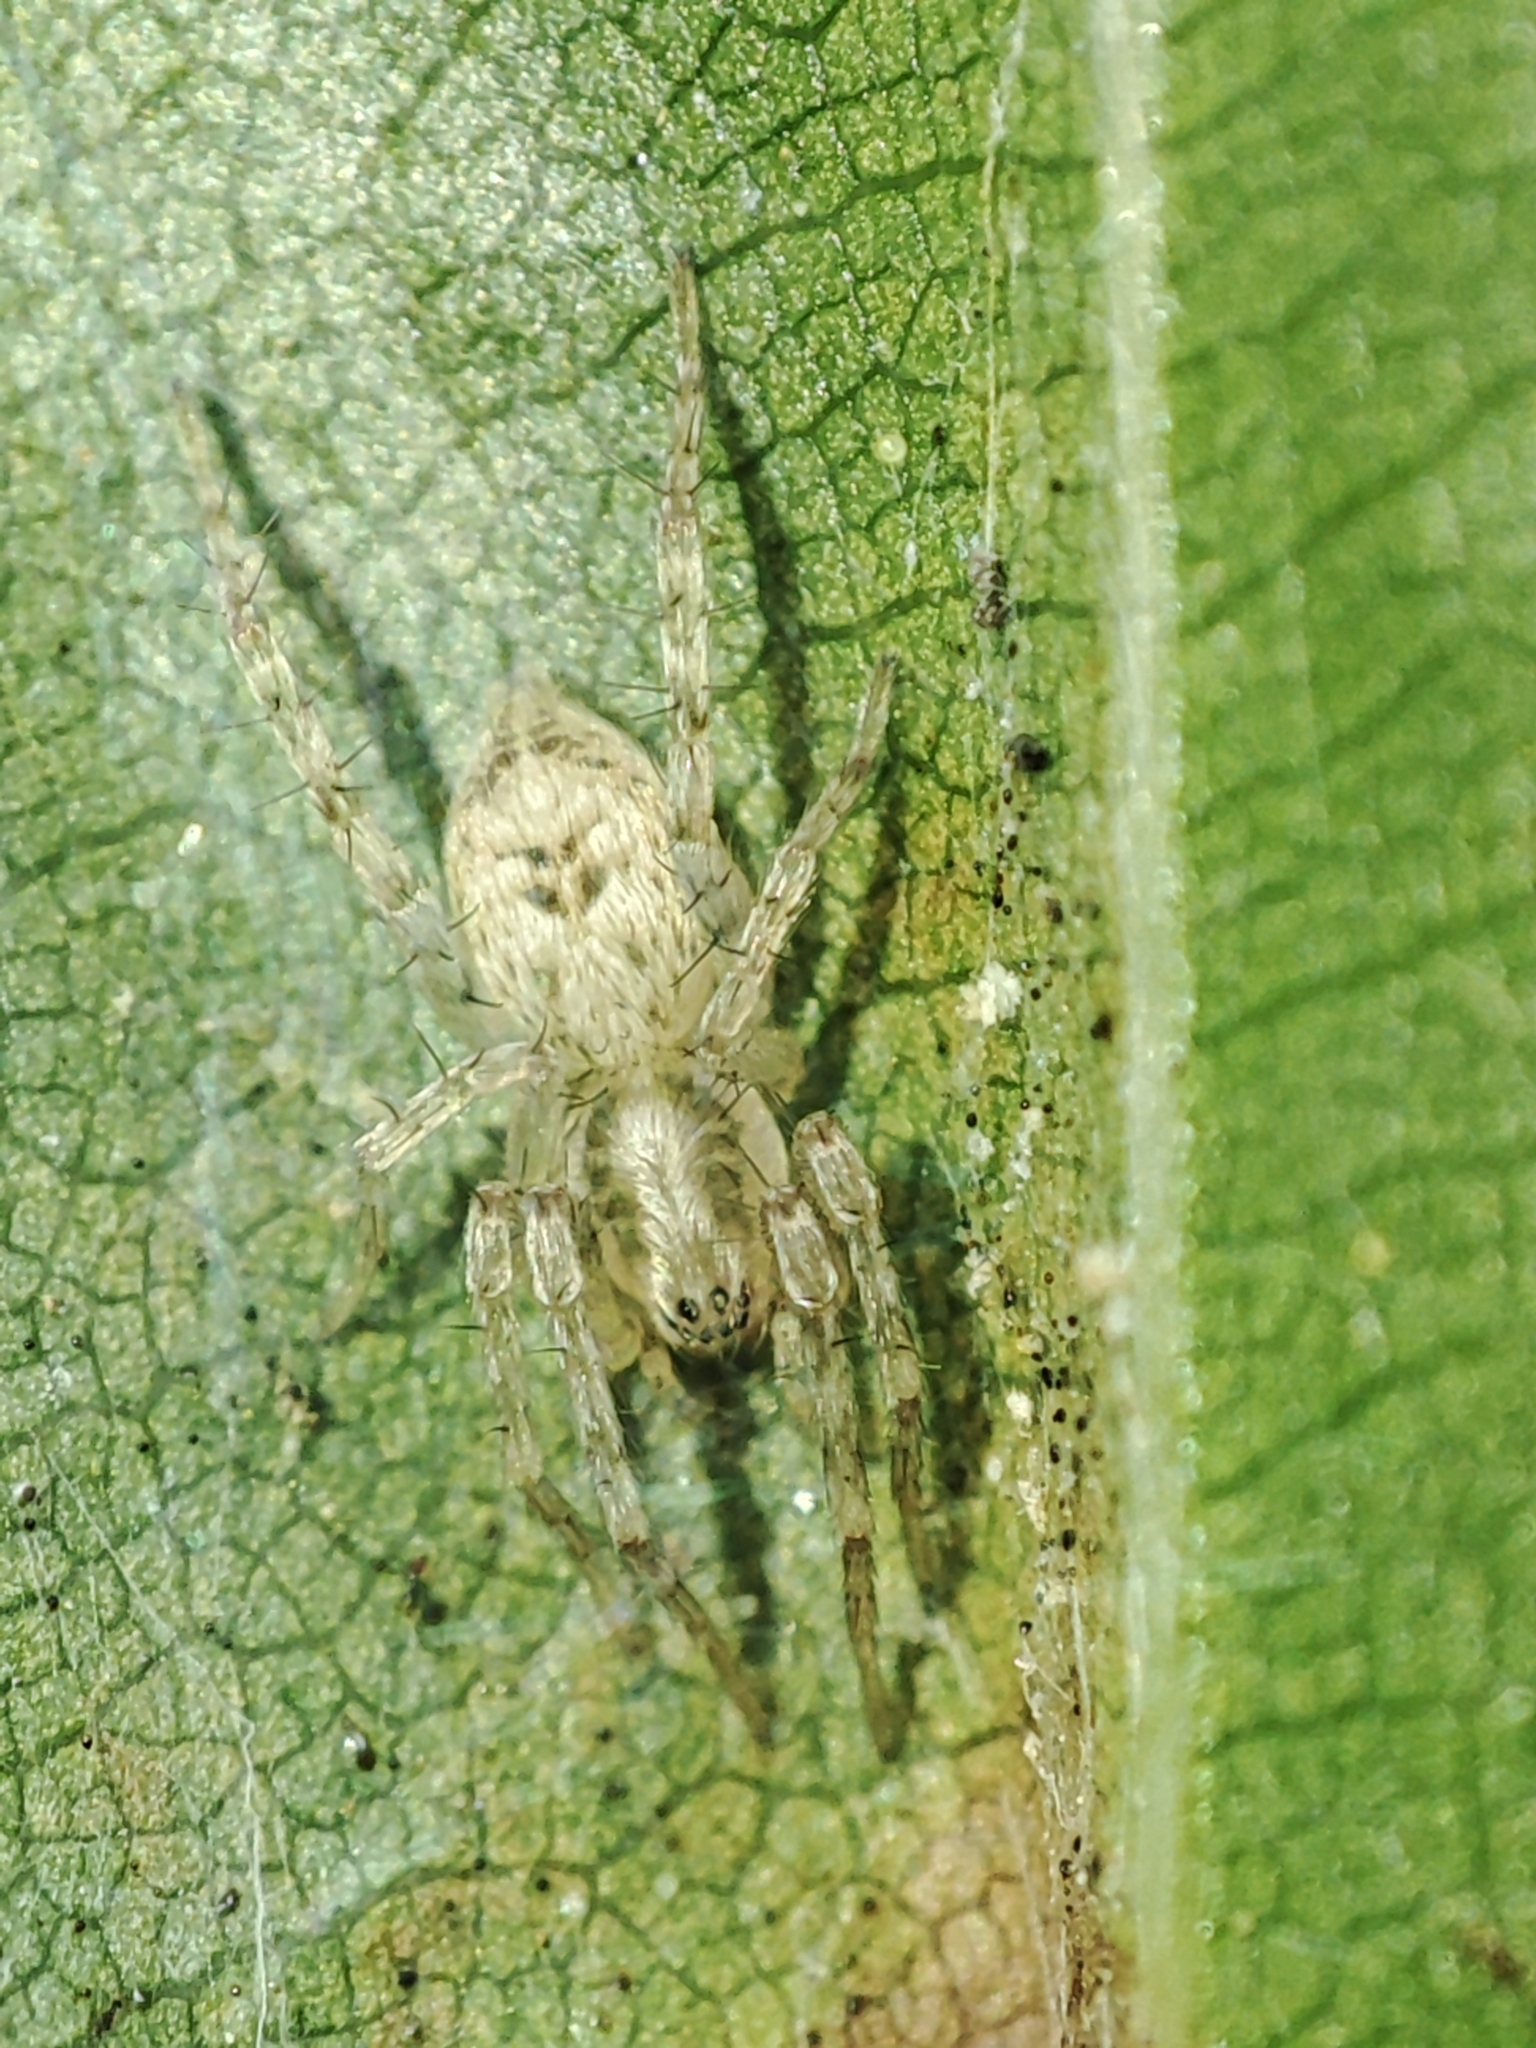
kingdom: Animalia
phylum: Arthropoda
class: Arachnida
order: Araneae
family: Anyphaenidae
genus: Anyphaena
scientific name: Anyphaena accentuata
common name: Buzzing spider
